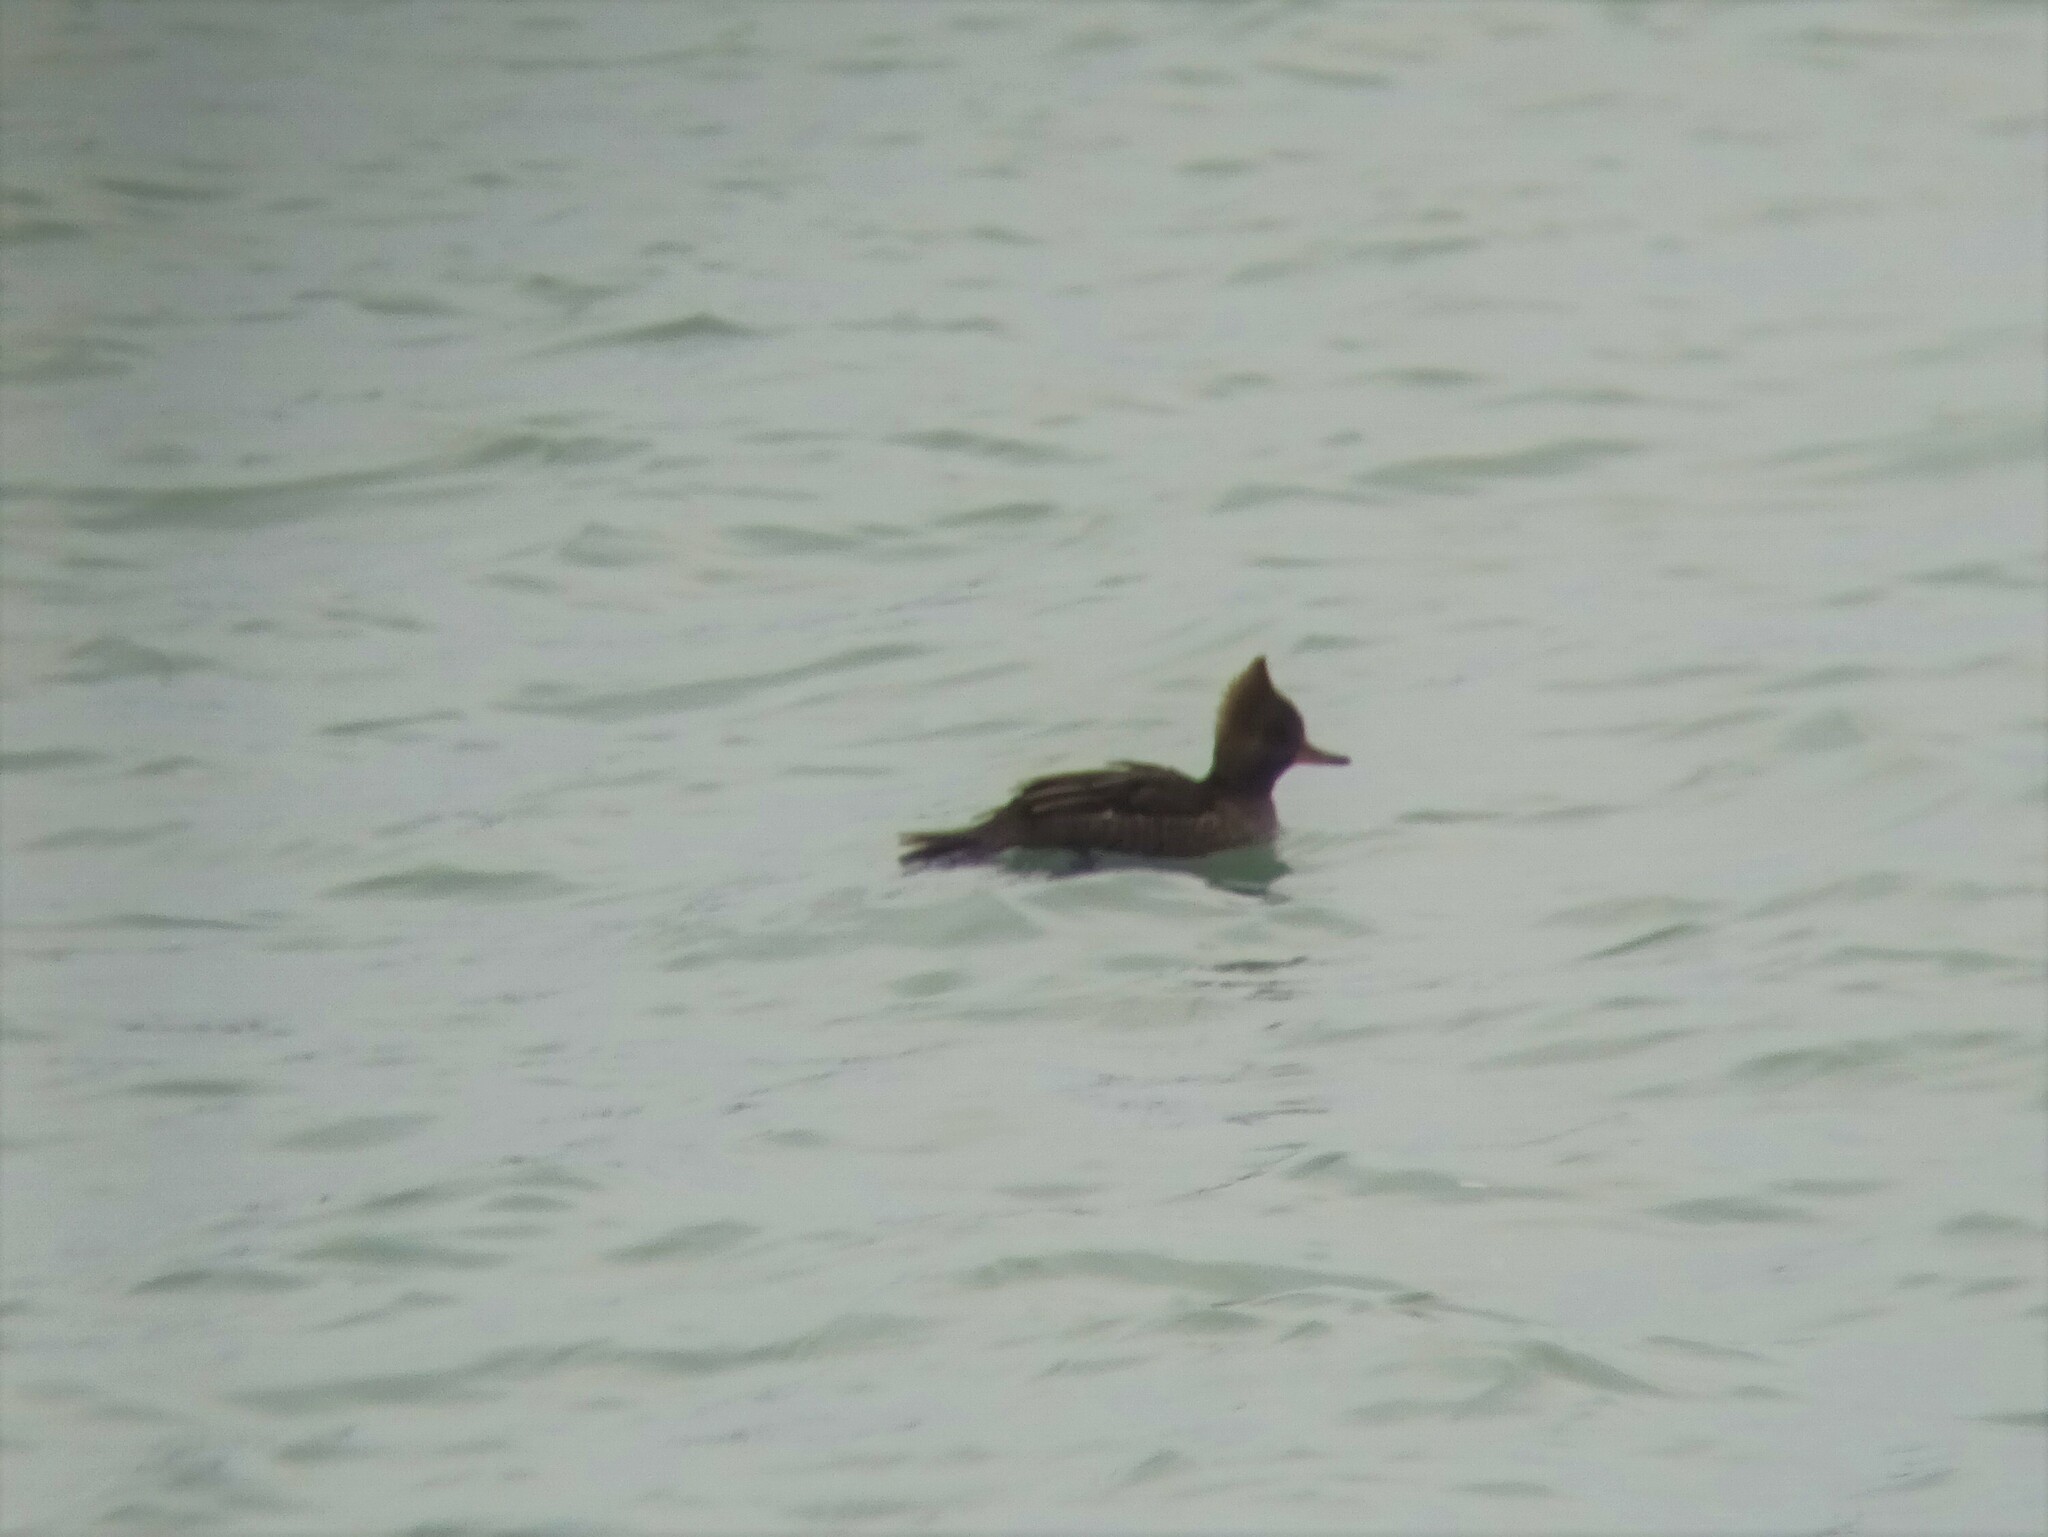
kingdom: Animalia
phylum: Chordata
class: Aves
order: Anseriformes
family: Anatidae
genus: Lophodytes
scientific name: Lophodytes cucullatus
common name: Hooded merganser
